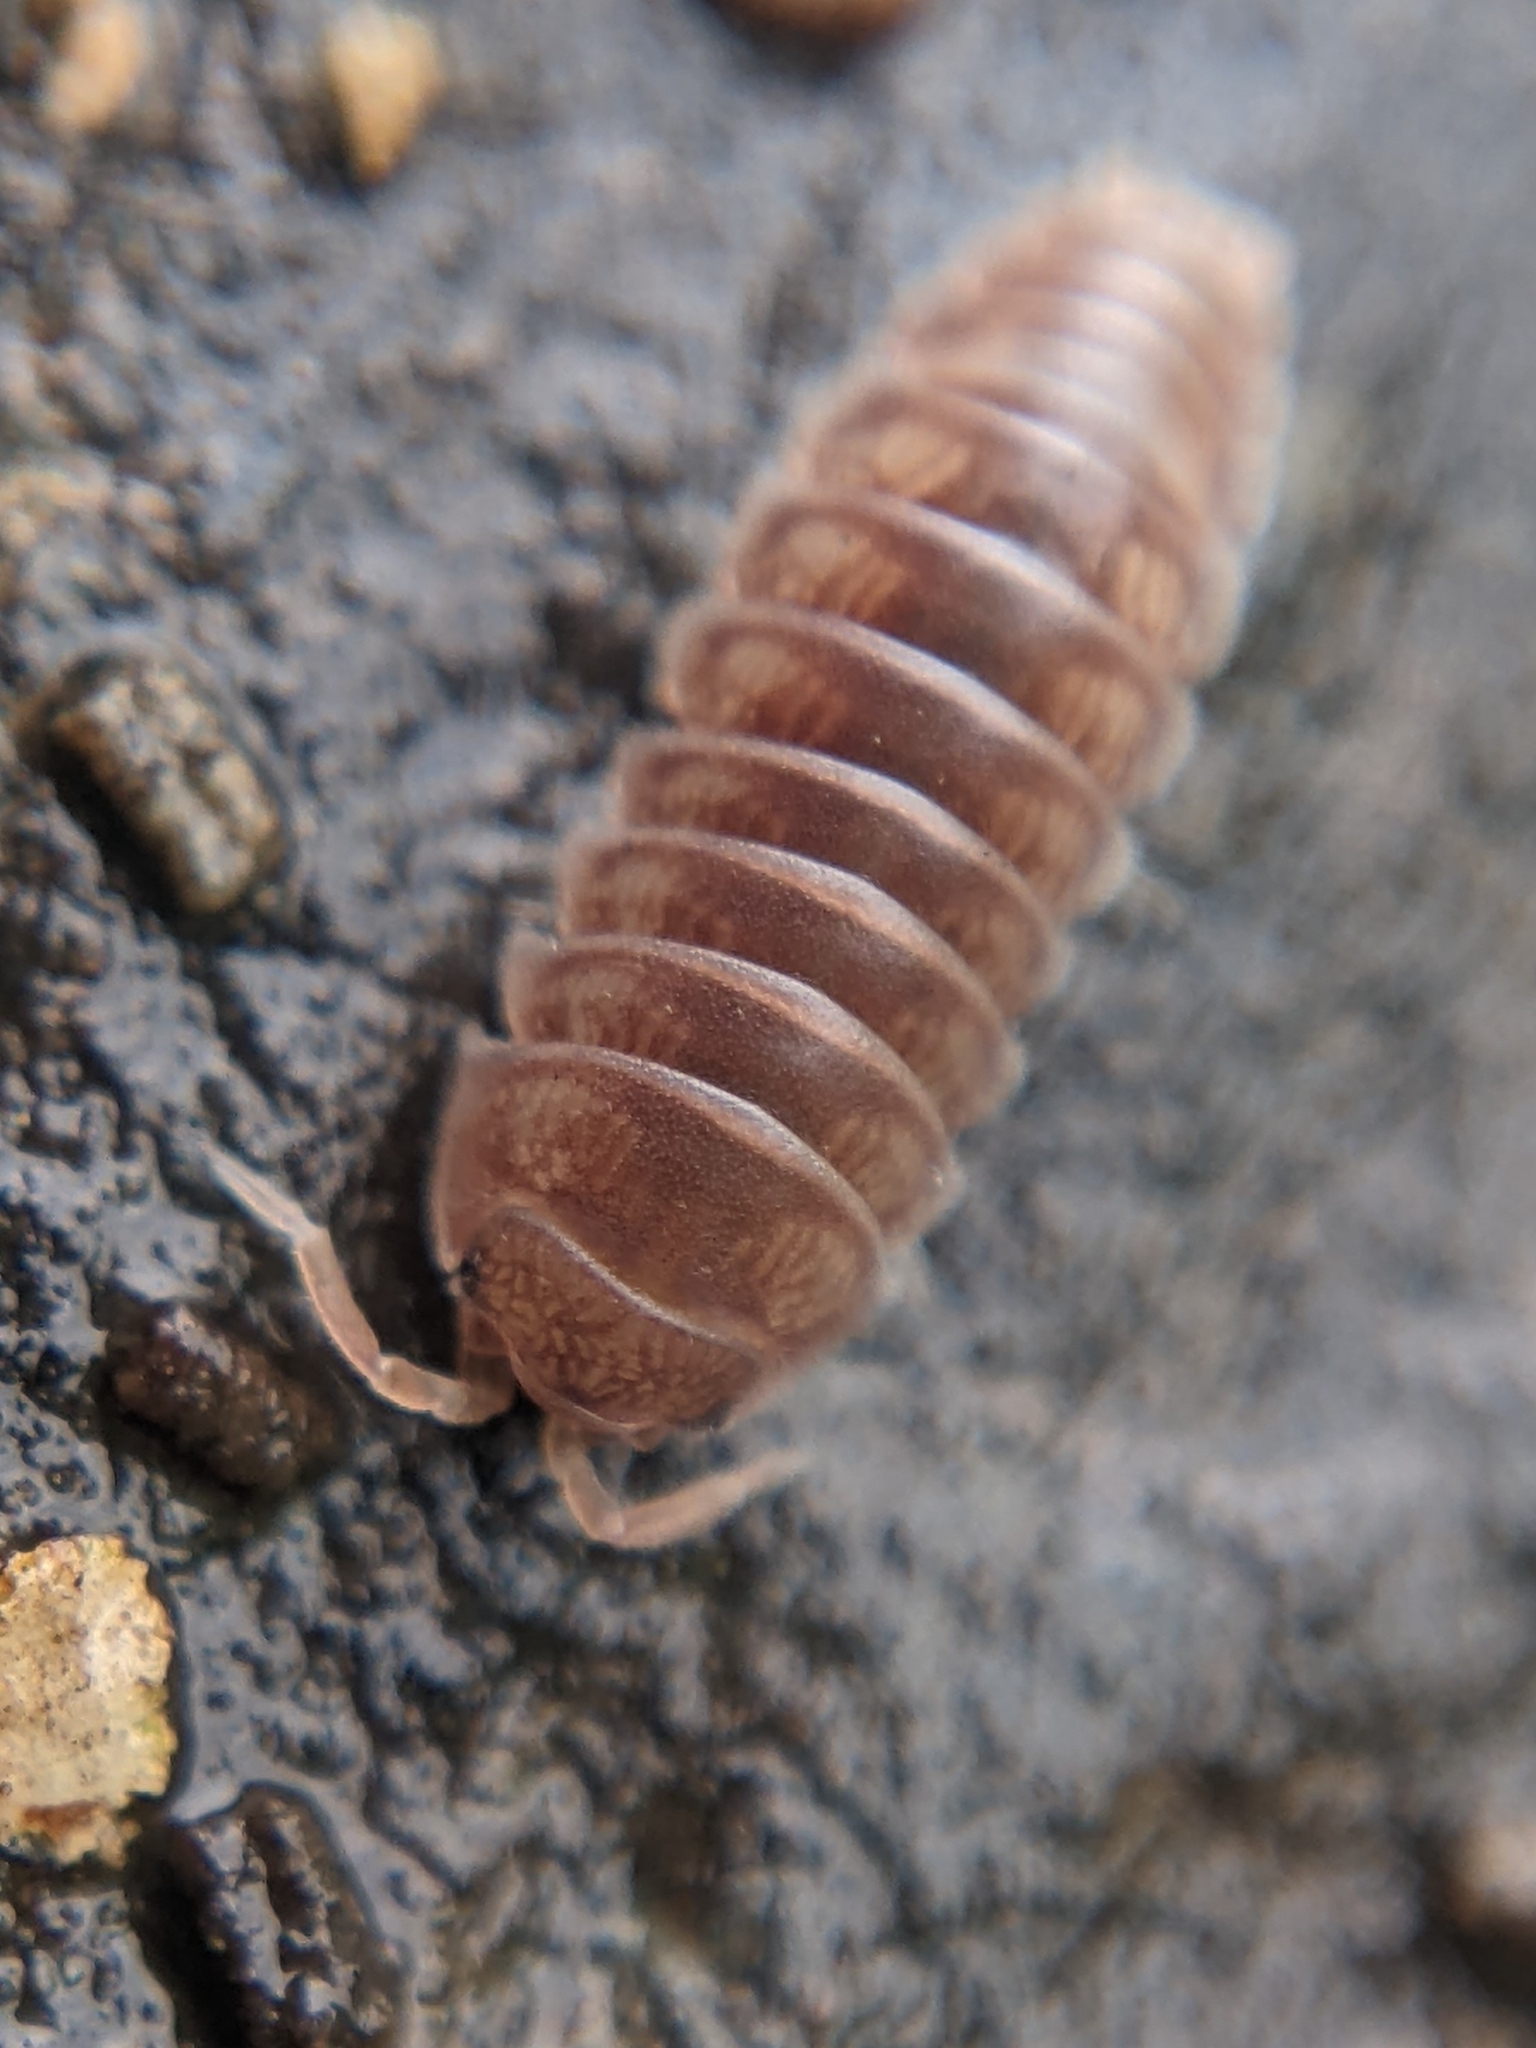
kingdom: Animalia
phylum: Arthropoda
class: Malacostraca
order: Isopoda
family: Armadillidiidae
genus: Eluma
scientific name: Eluma caelata
